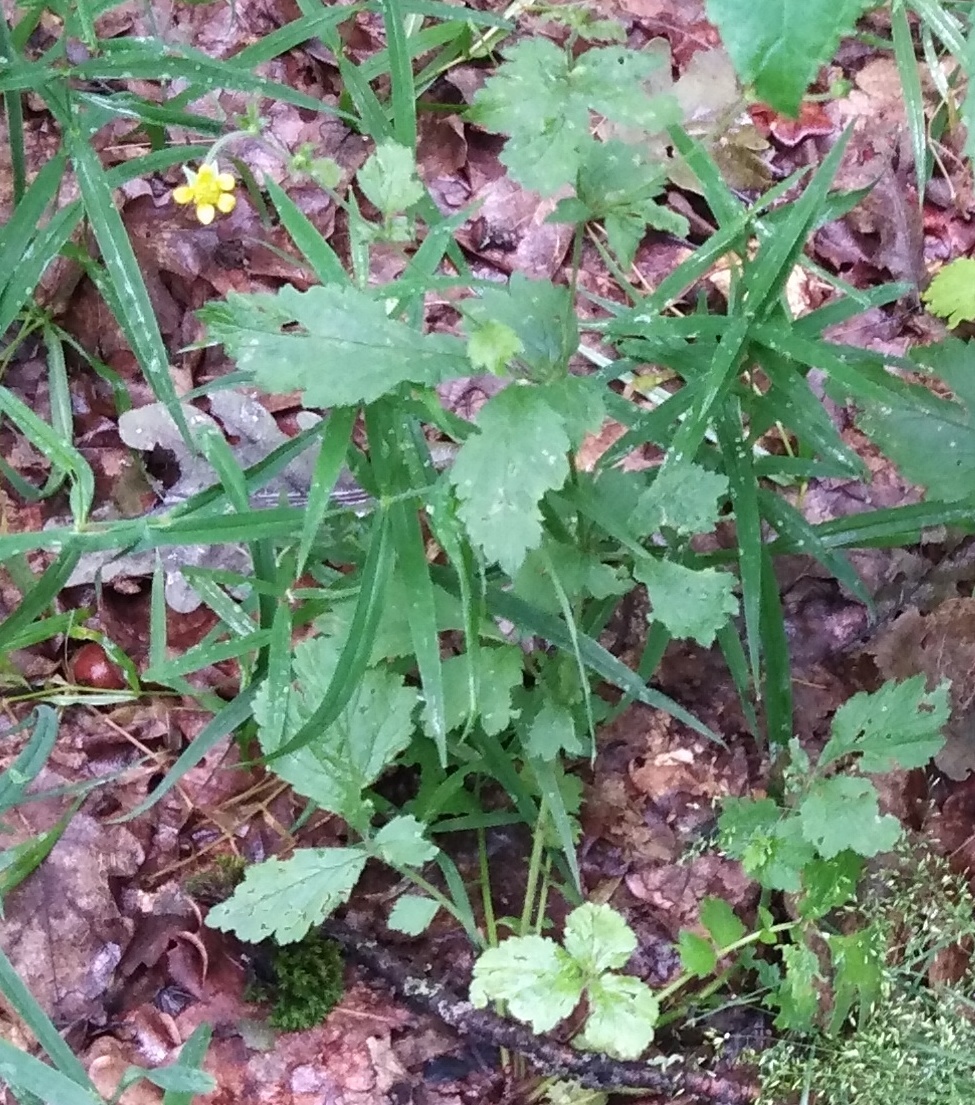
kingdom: Plantae
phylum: Tracheophyta
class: Magnoliopsida
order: Rosales
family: Rosaceae
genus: Geum
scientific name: Geum urbanum
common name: Wood avens
